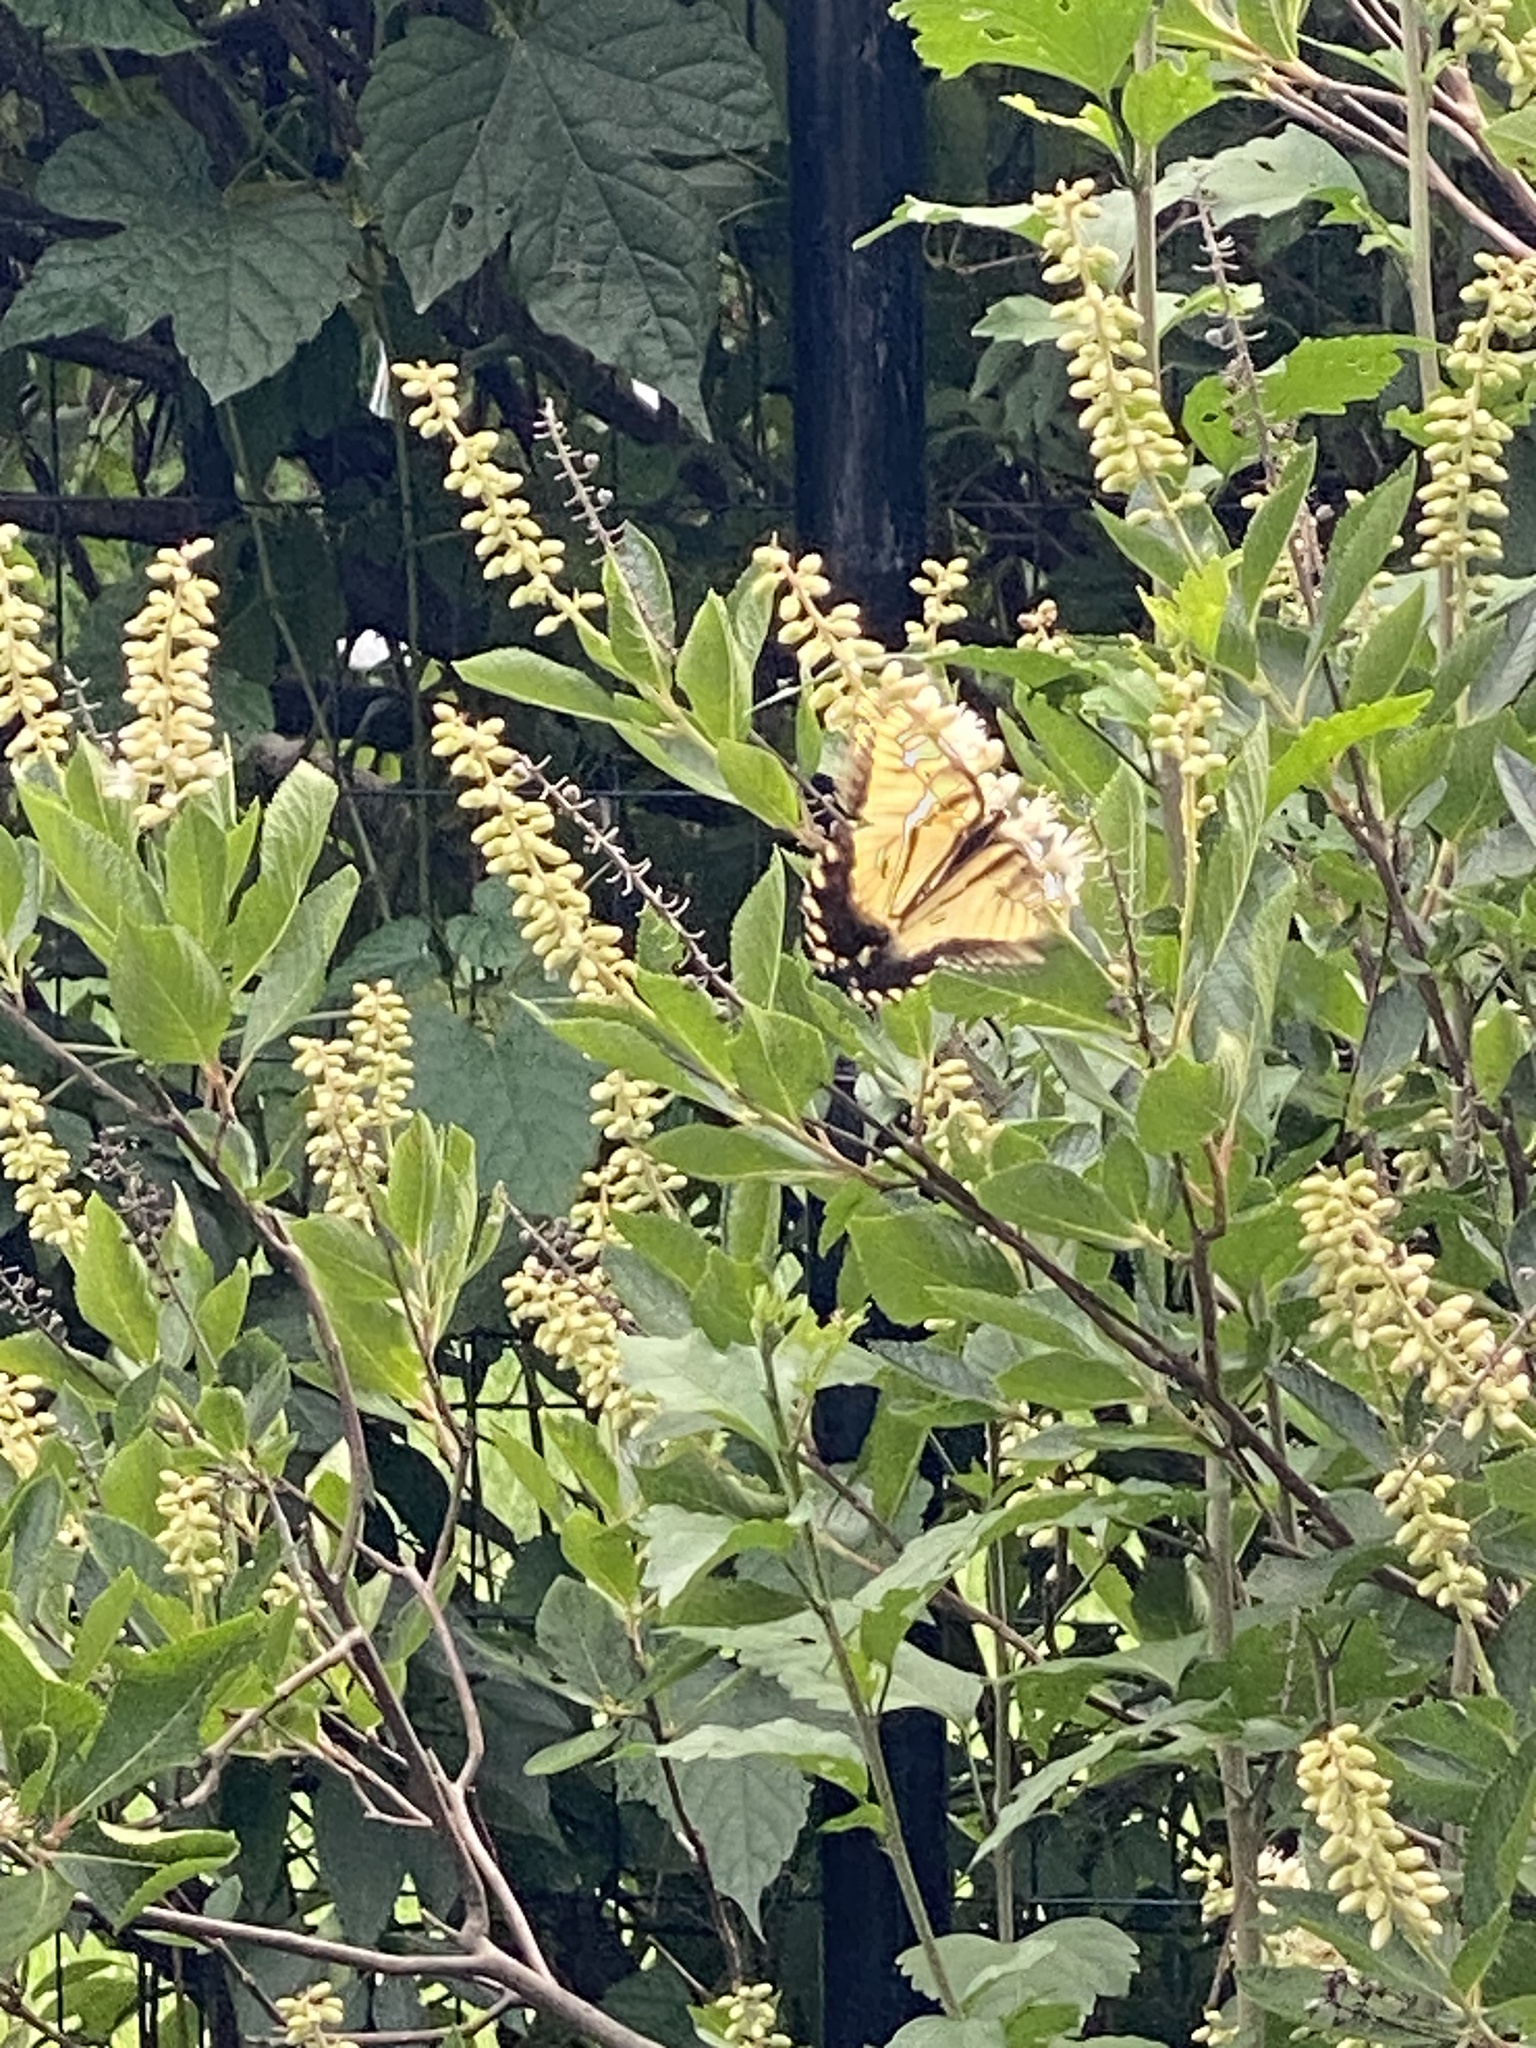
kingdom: Animalia
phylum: Arthropoda
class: Insecta
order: Lepidoptera
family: Papilionidae
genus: Papilio
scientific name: Papilio glaucus
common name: Tiger swallowtail
